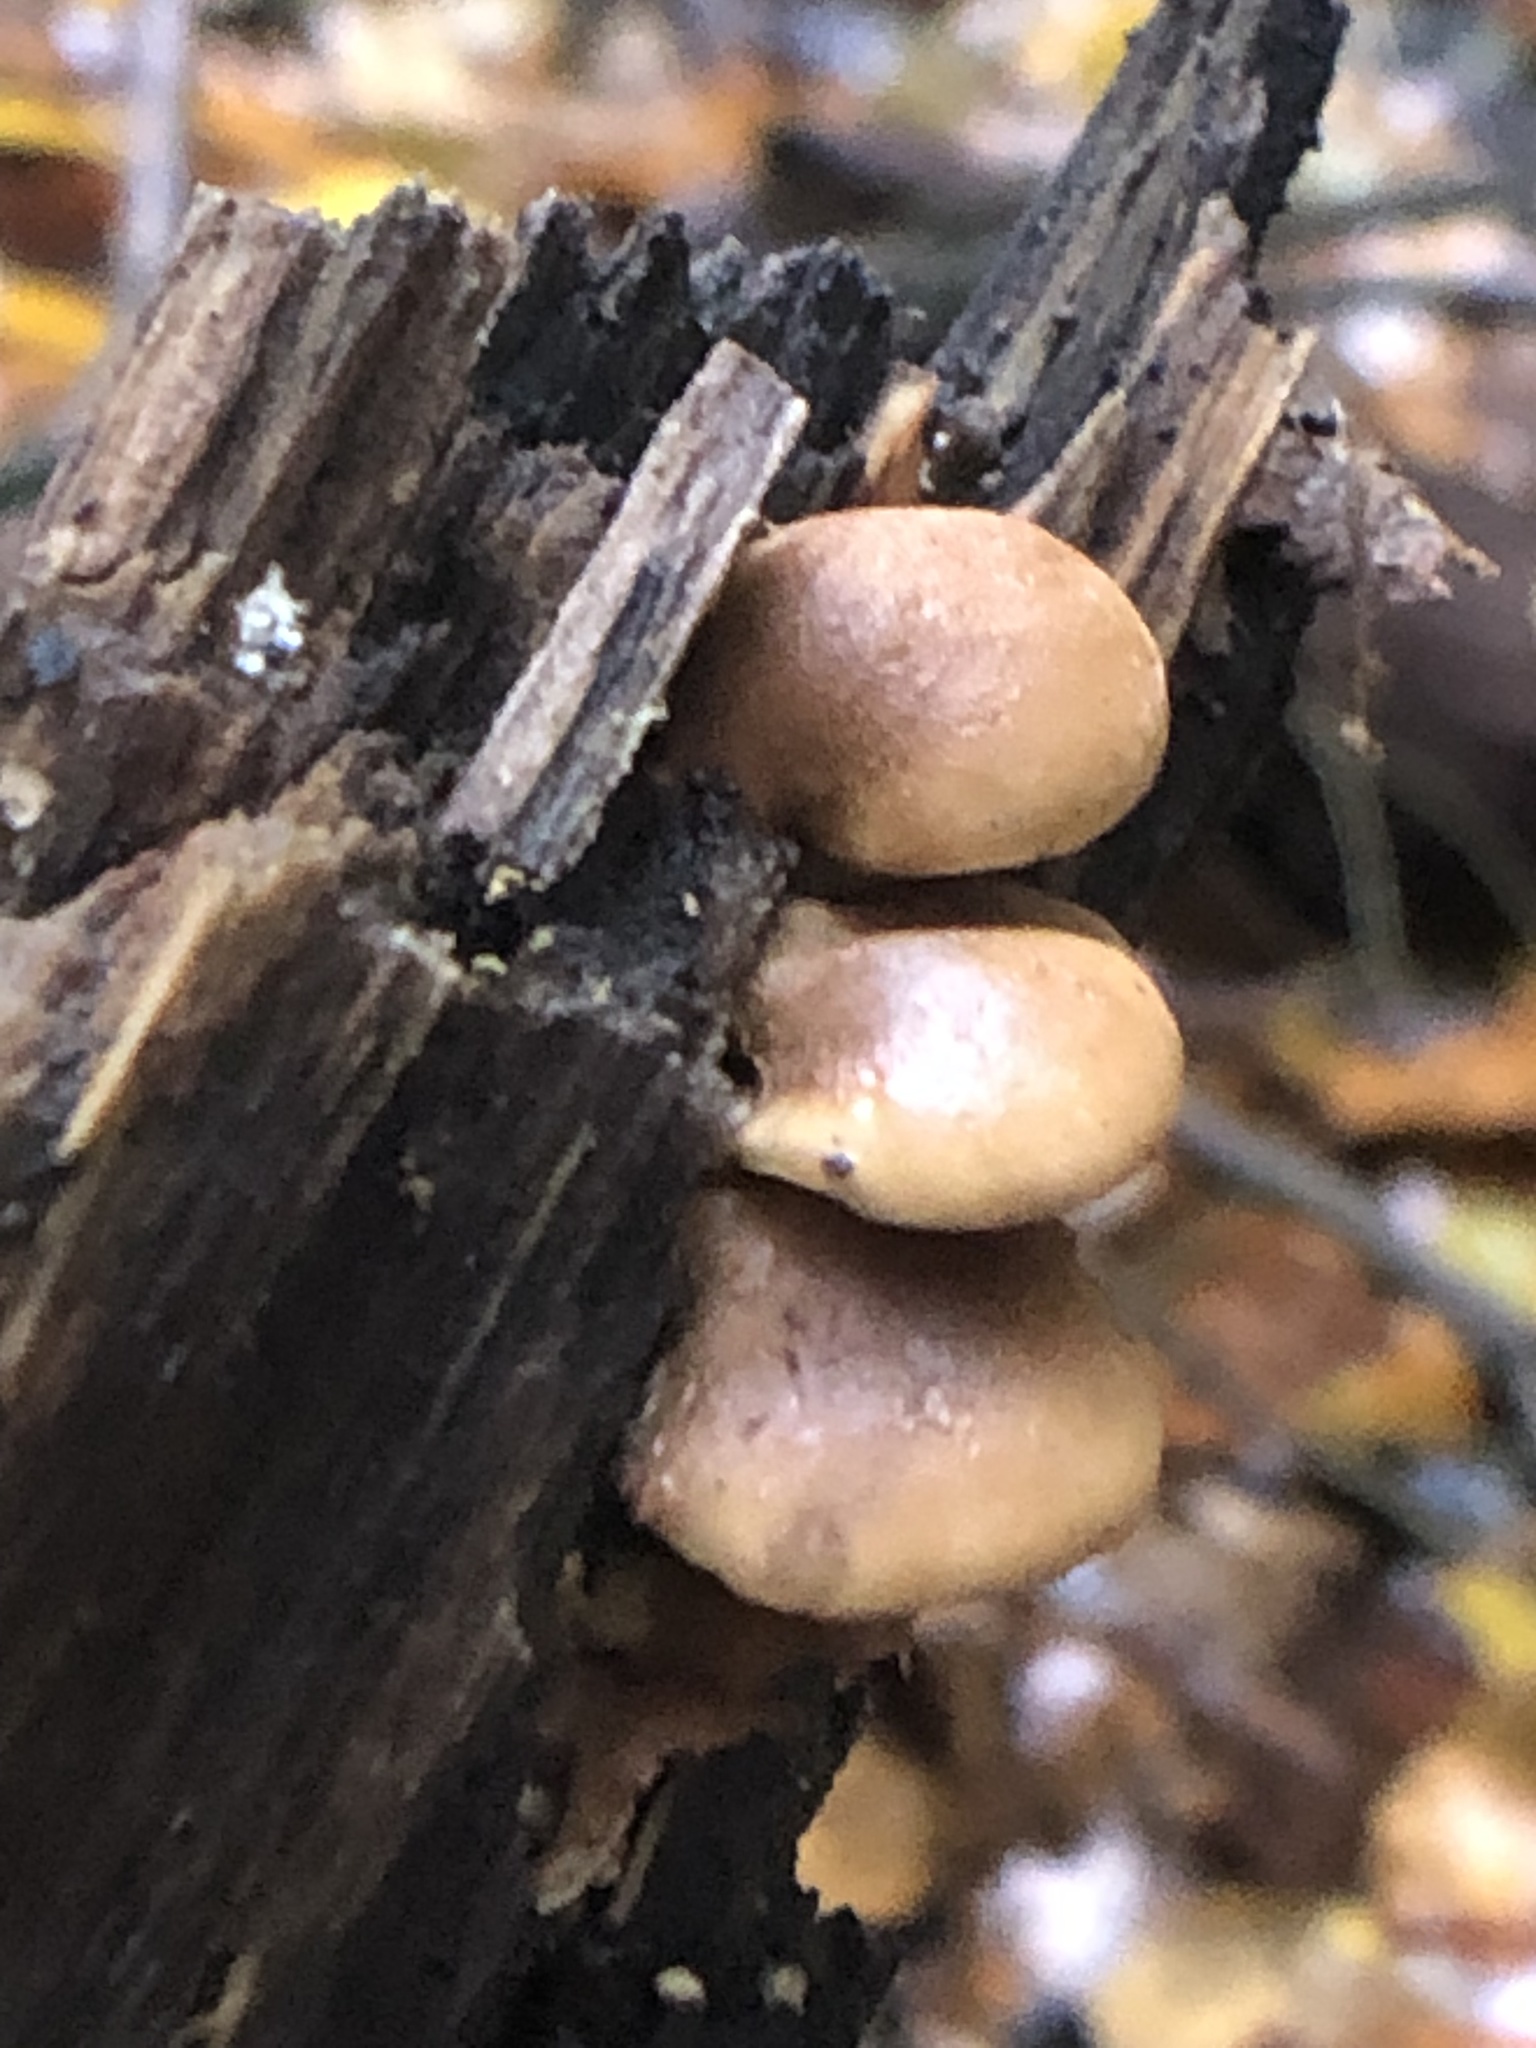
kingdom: Fungi
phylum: Basidiomycota
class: Agaricomycetes
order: Agaricales
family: Mycenaceae
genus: Tectella
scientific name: Tectella patellaris
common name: Veiled panus
